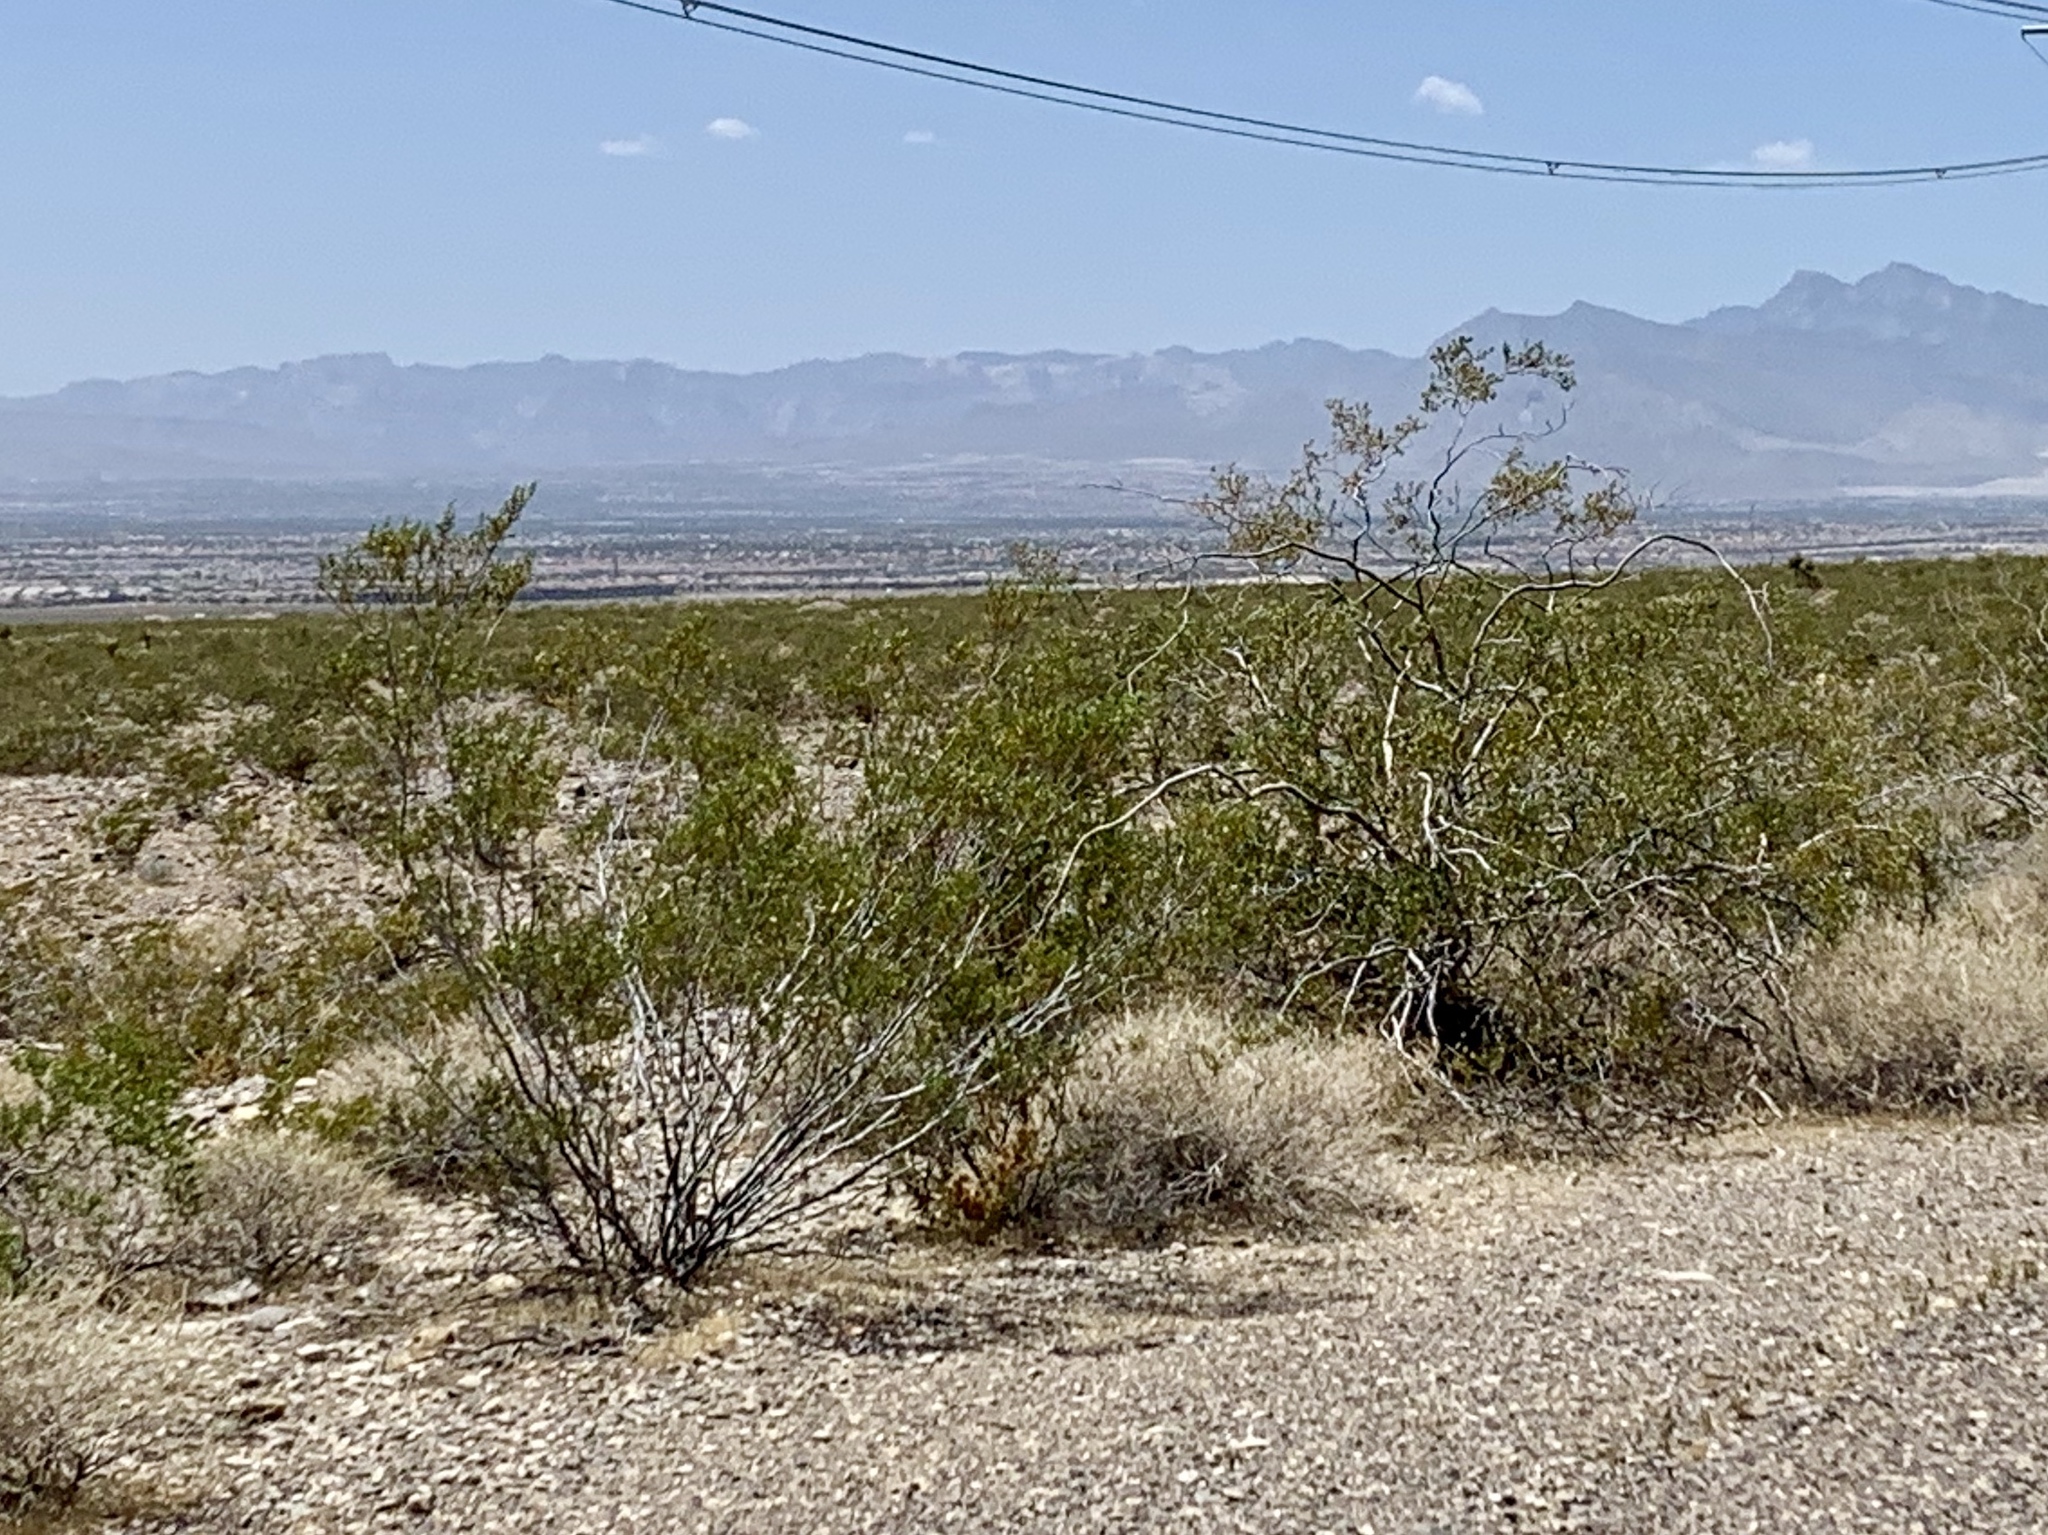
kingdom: Plantae
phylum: Tracheophyta
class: Magnoliopsida
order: Zygophyllales
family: Zygophyllaceae
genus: Larrea
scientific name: Larrea tridentata
